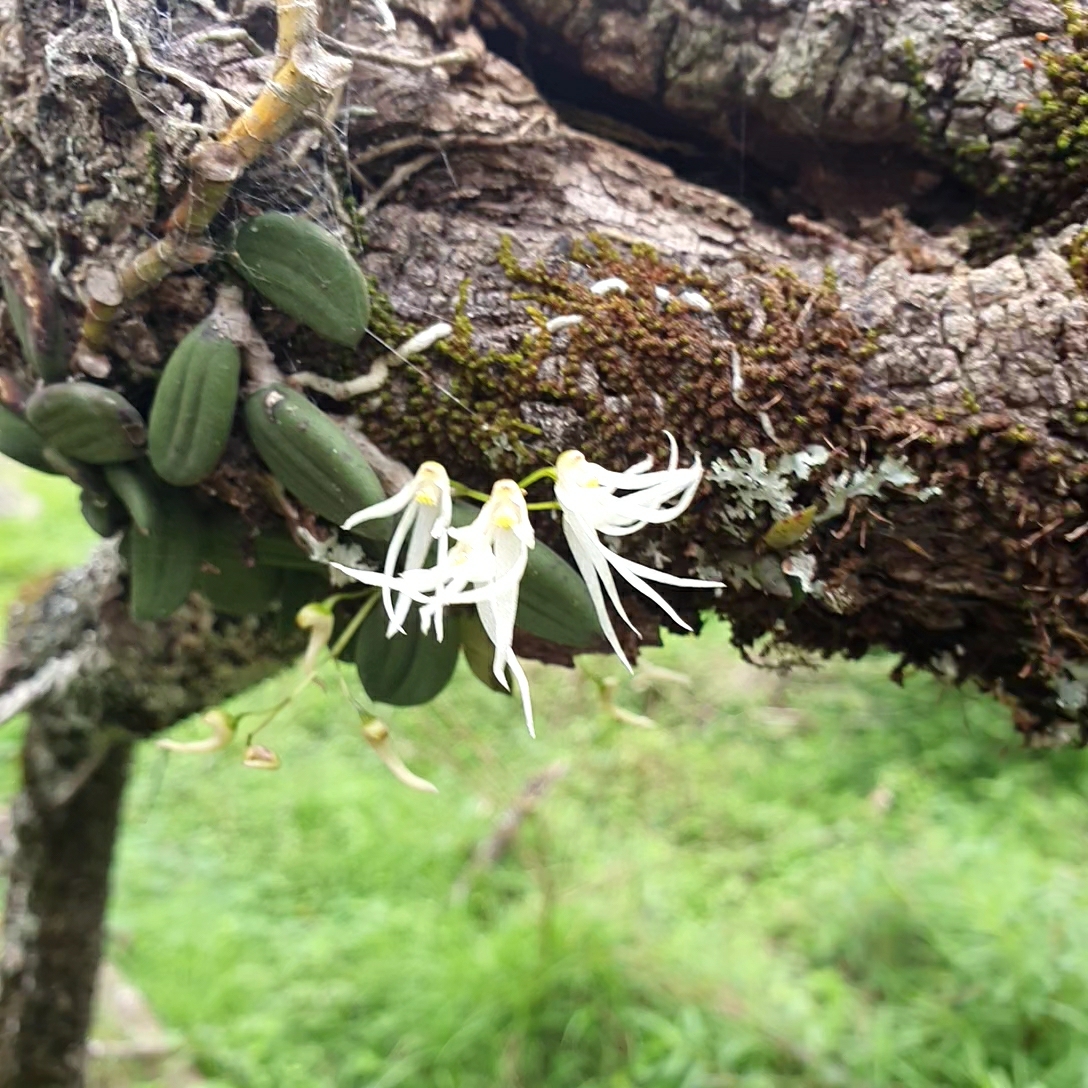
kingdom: Plantae
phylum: Tracheophyta
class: Liliopsida
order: Asparagales
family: Orchidaceae
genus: Dendrobium
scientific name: Dendrobium linguiforme
